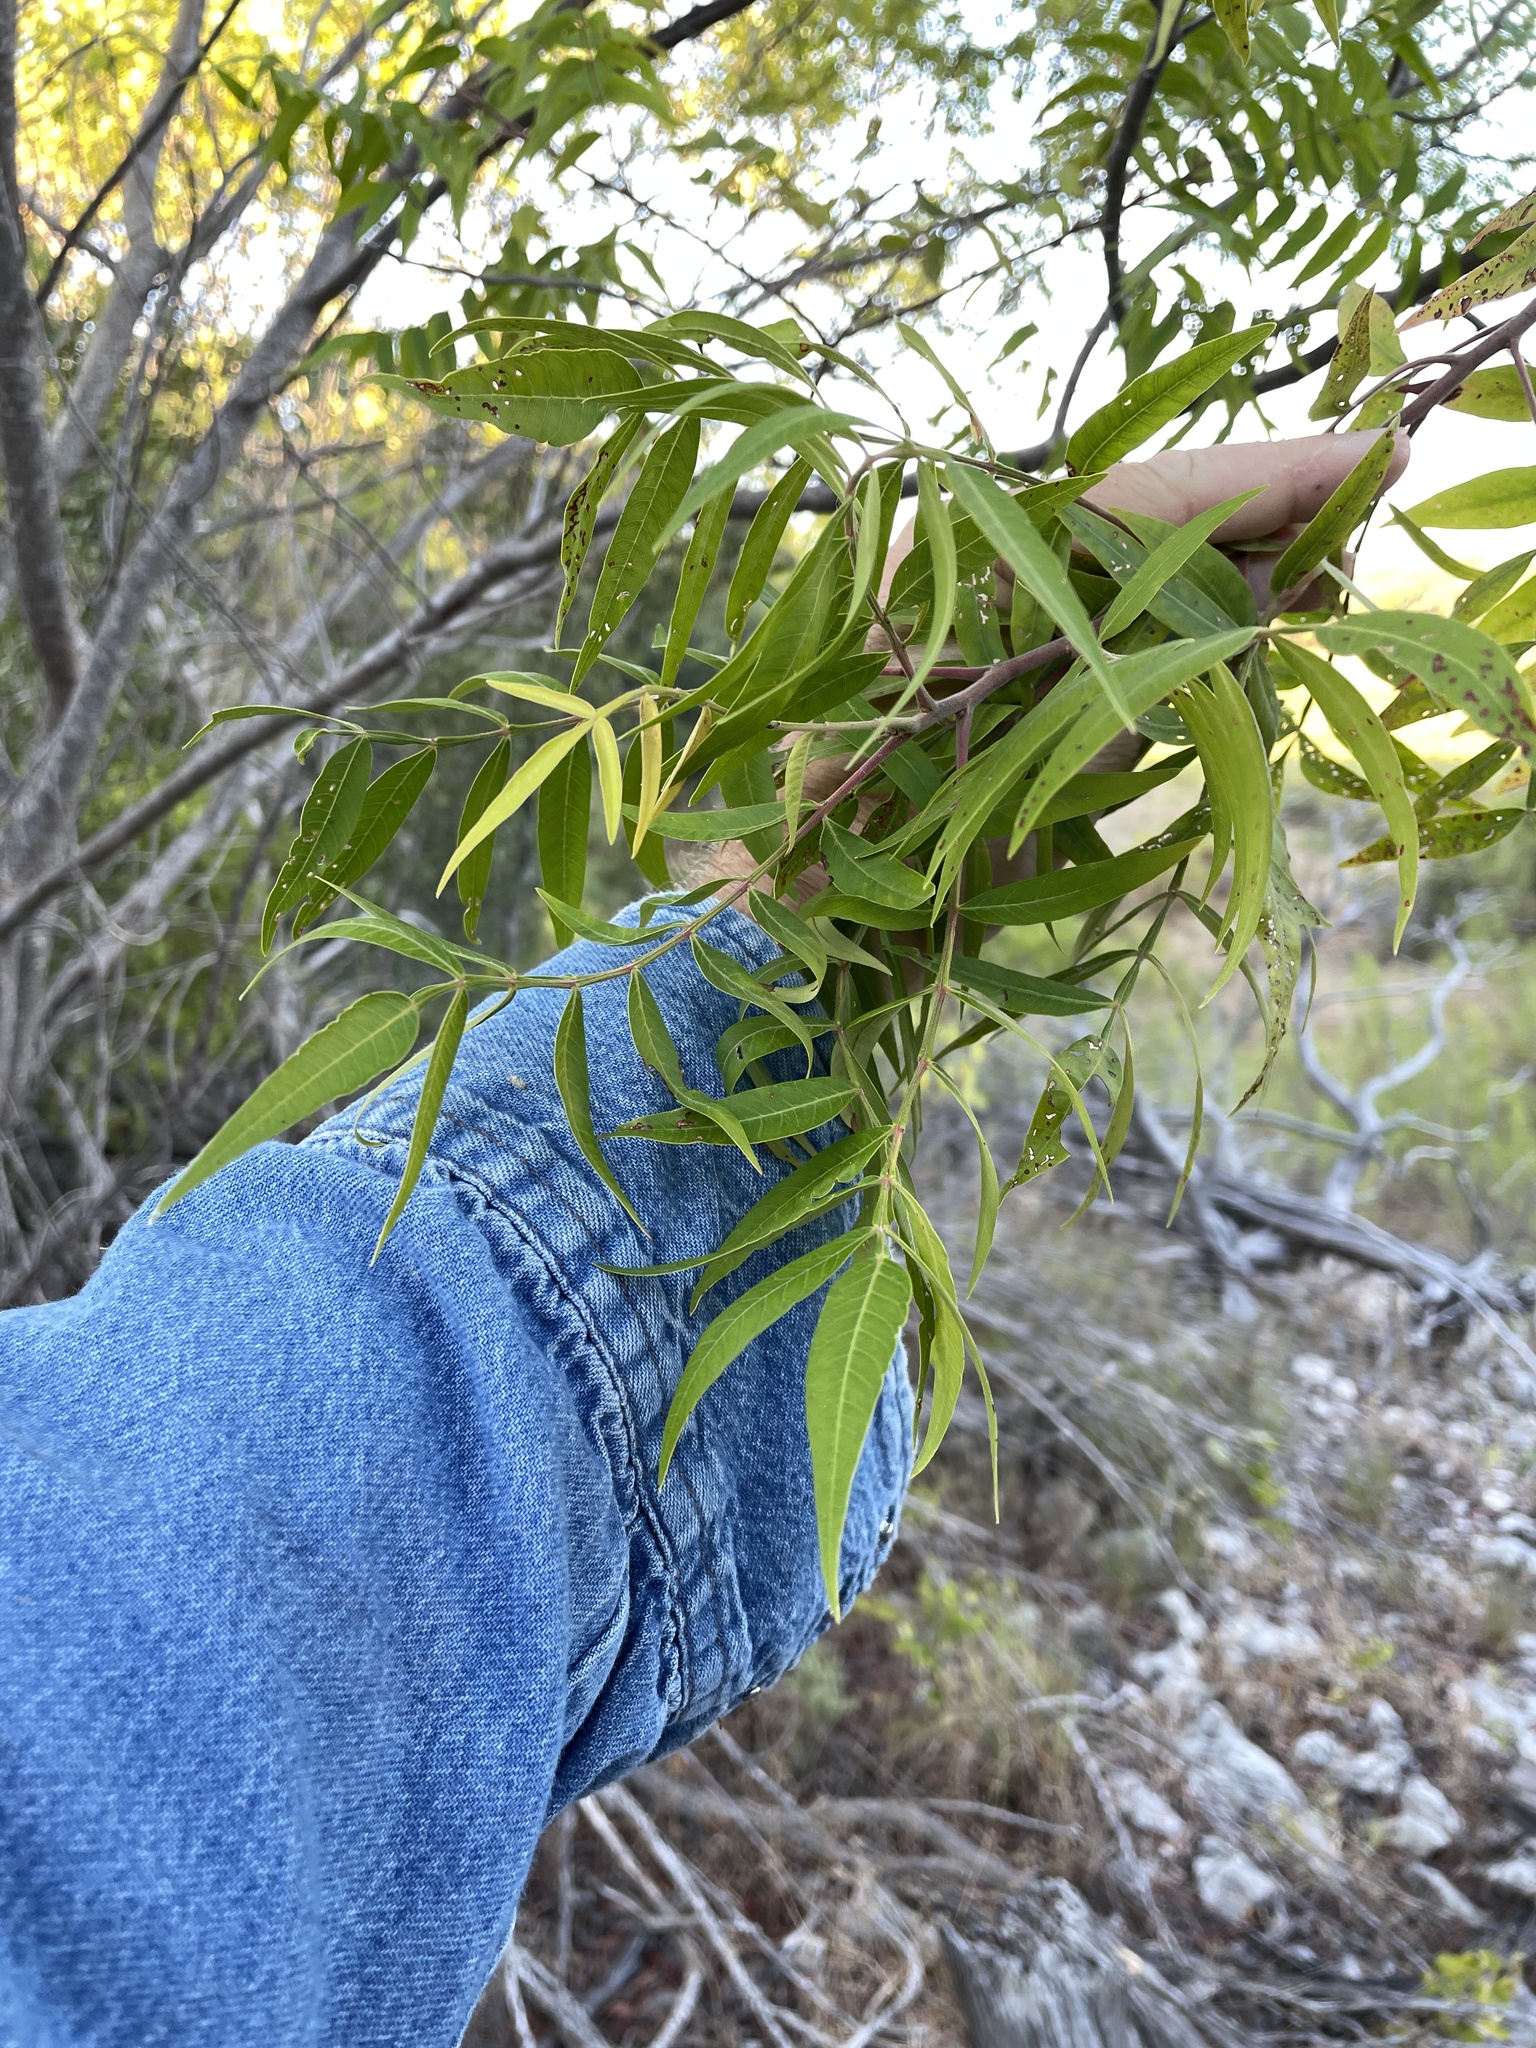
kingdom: Plantae
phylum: Tracheophyta
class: Magnoliopsida
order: Sapindales
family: Anacardiaceae
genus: Rhus
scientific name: Rhus lanceolata
